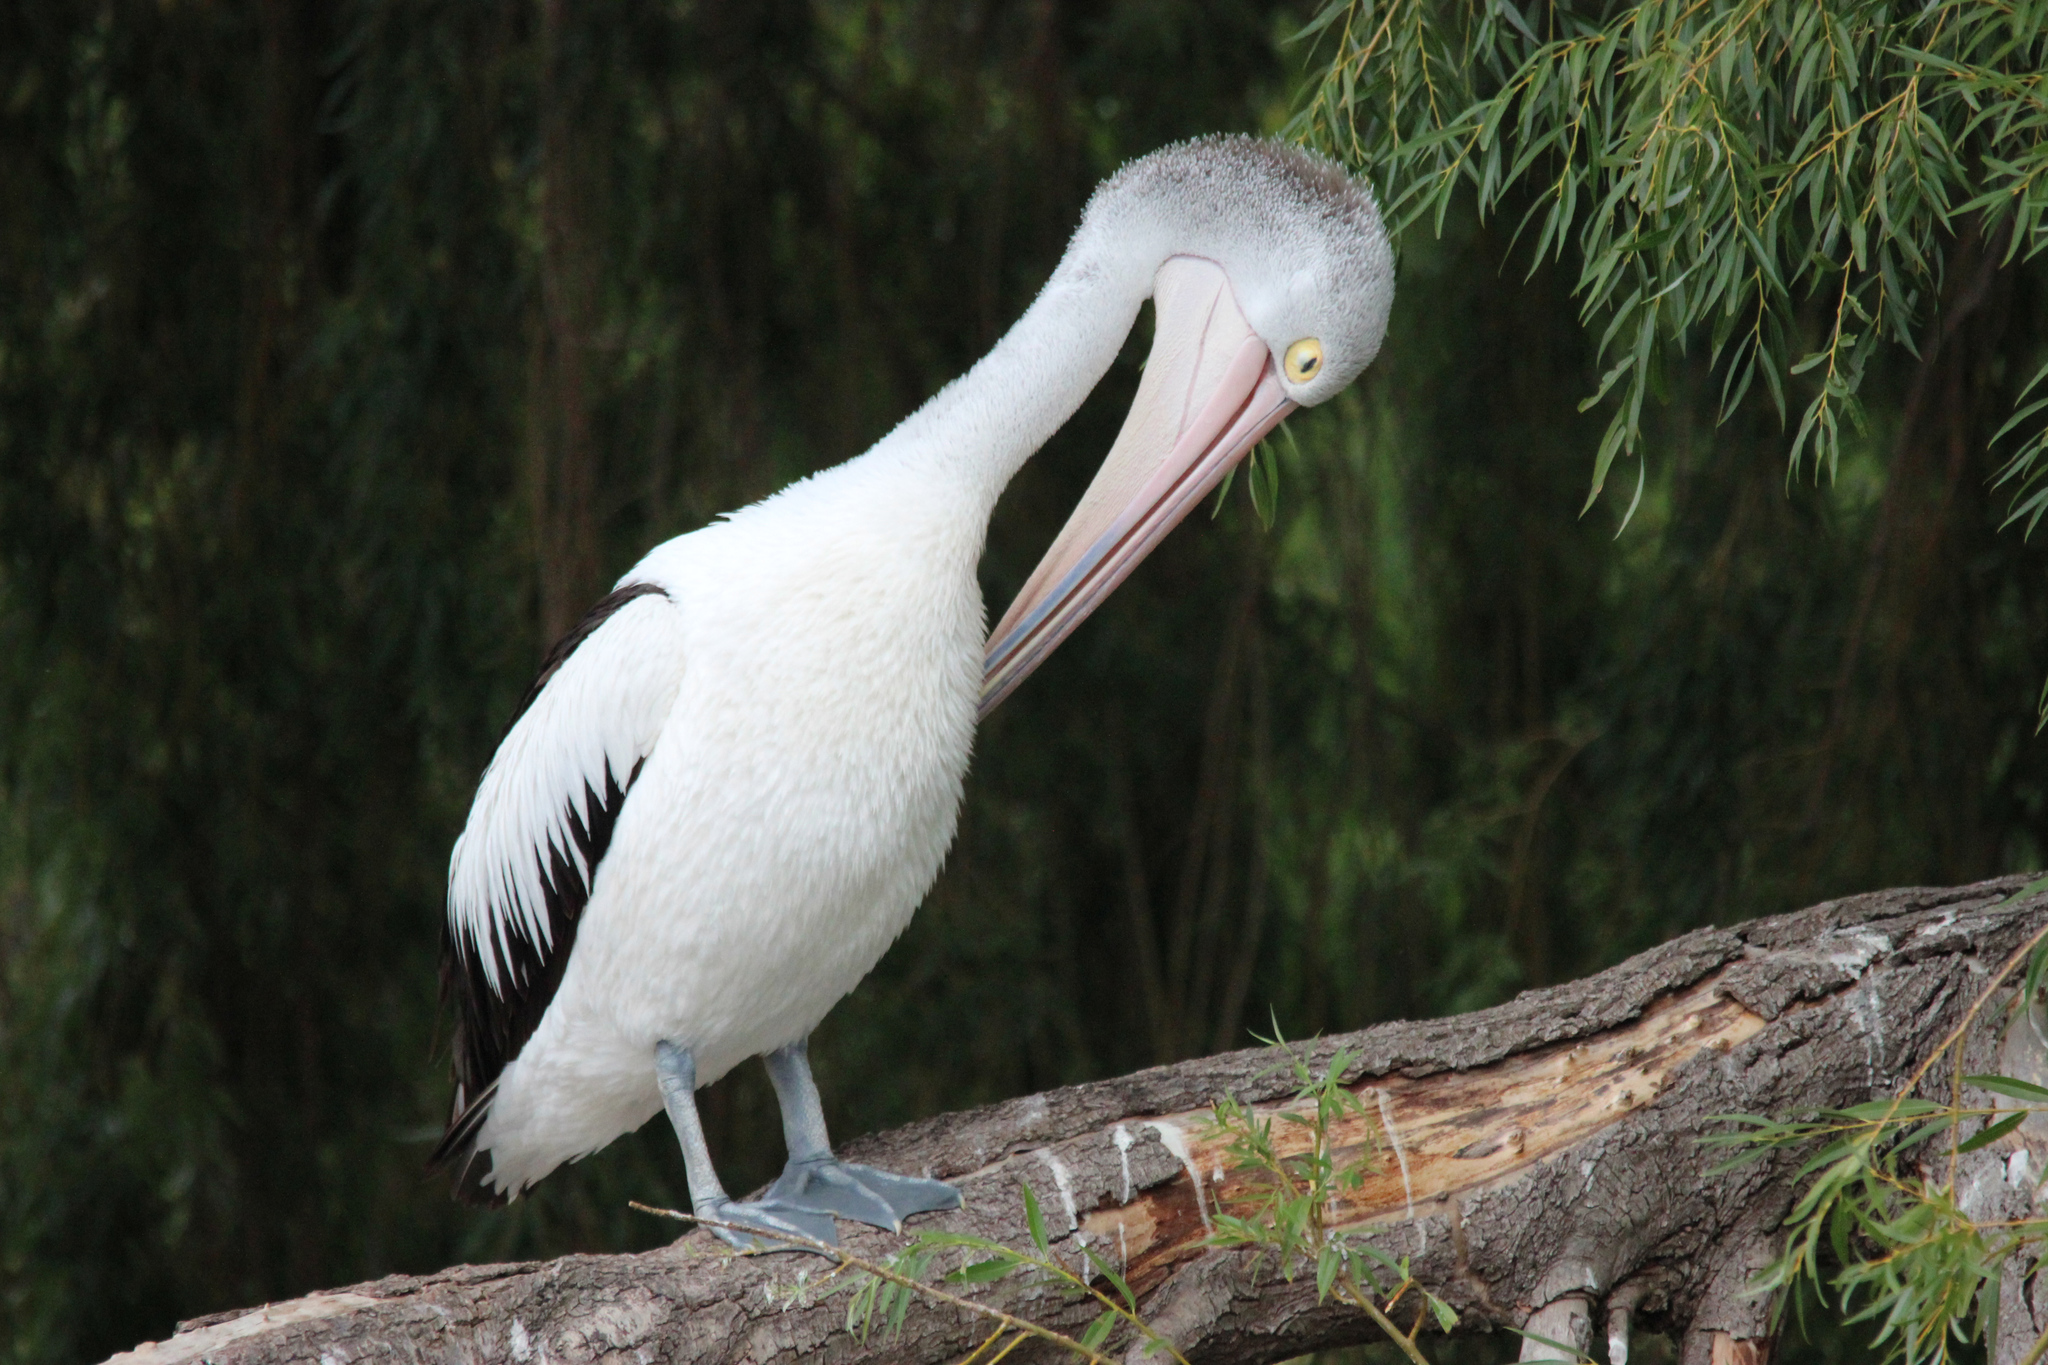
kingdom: Animalia
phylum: Chordata
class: Aves
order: Pelecaniformes
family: Pelecanidae
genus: Pelecanus
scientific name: Pelecanus conspicillatus
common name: Australian pelican
